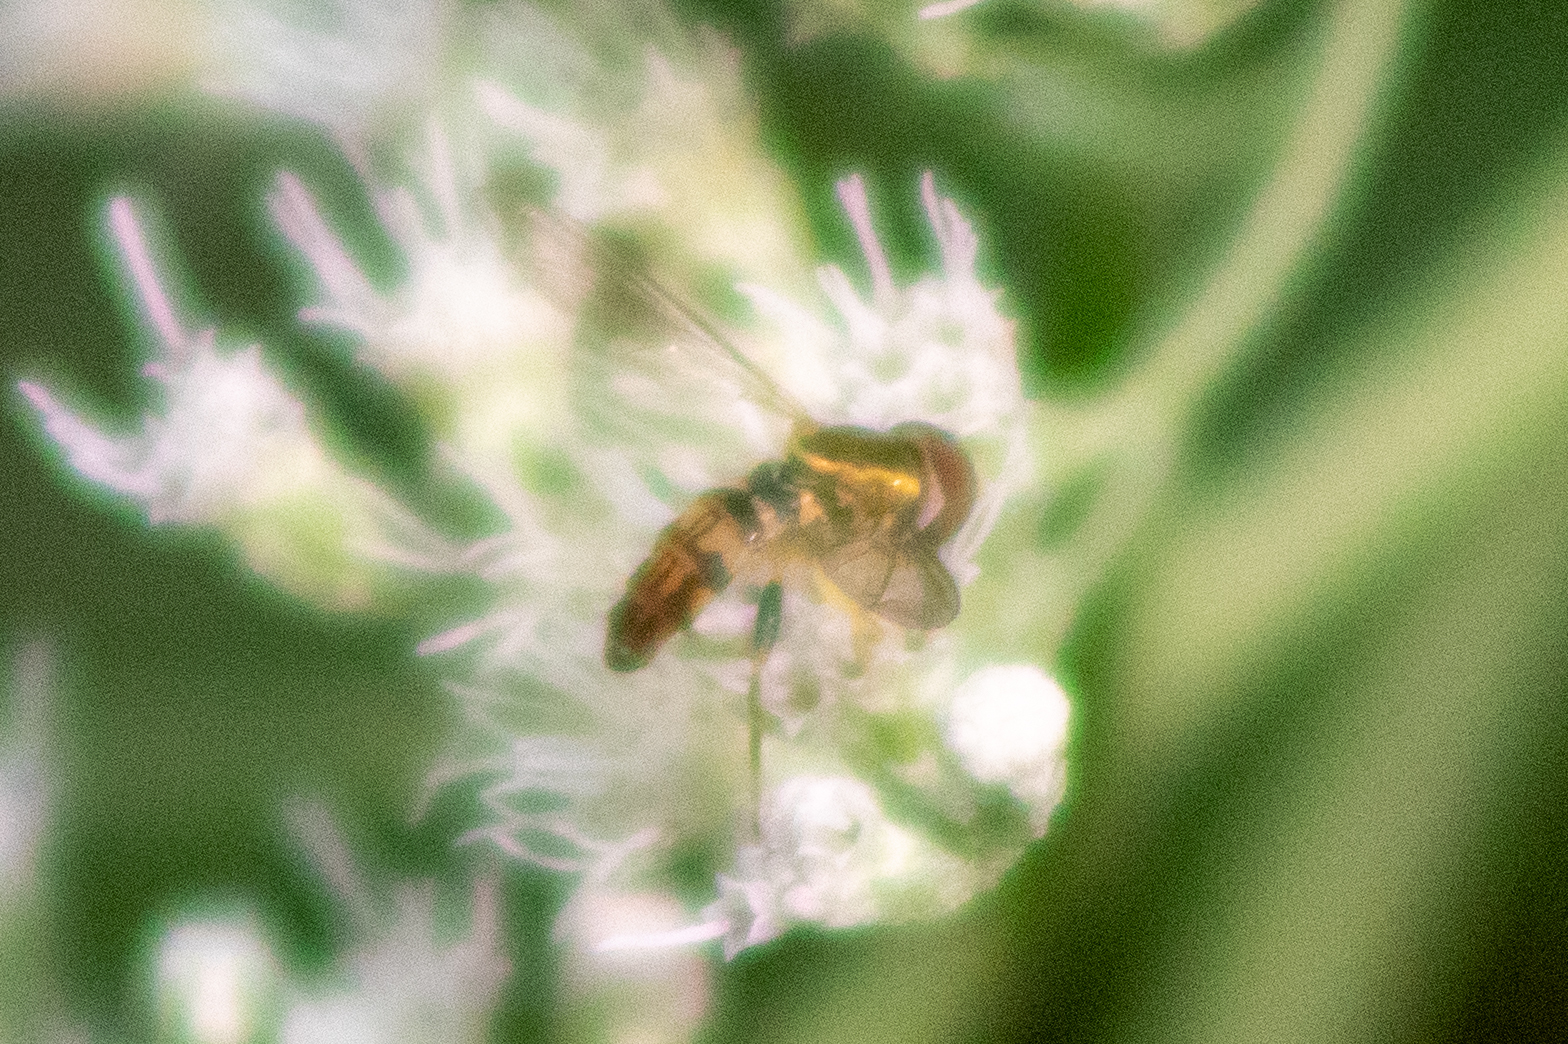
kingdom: Animalia
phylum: Arthropoda
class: Insecta
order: Diptera
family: Syrphidae
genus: Toxomerus
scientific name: Toxomerus geminatus
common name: Eastern calligrapher
